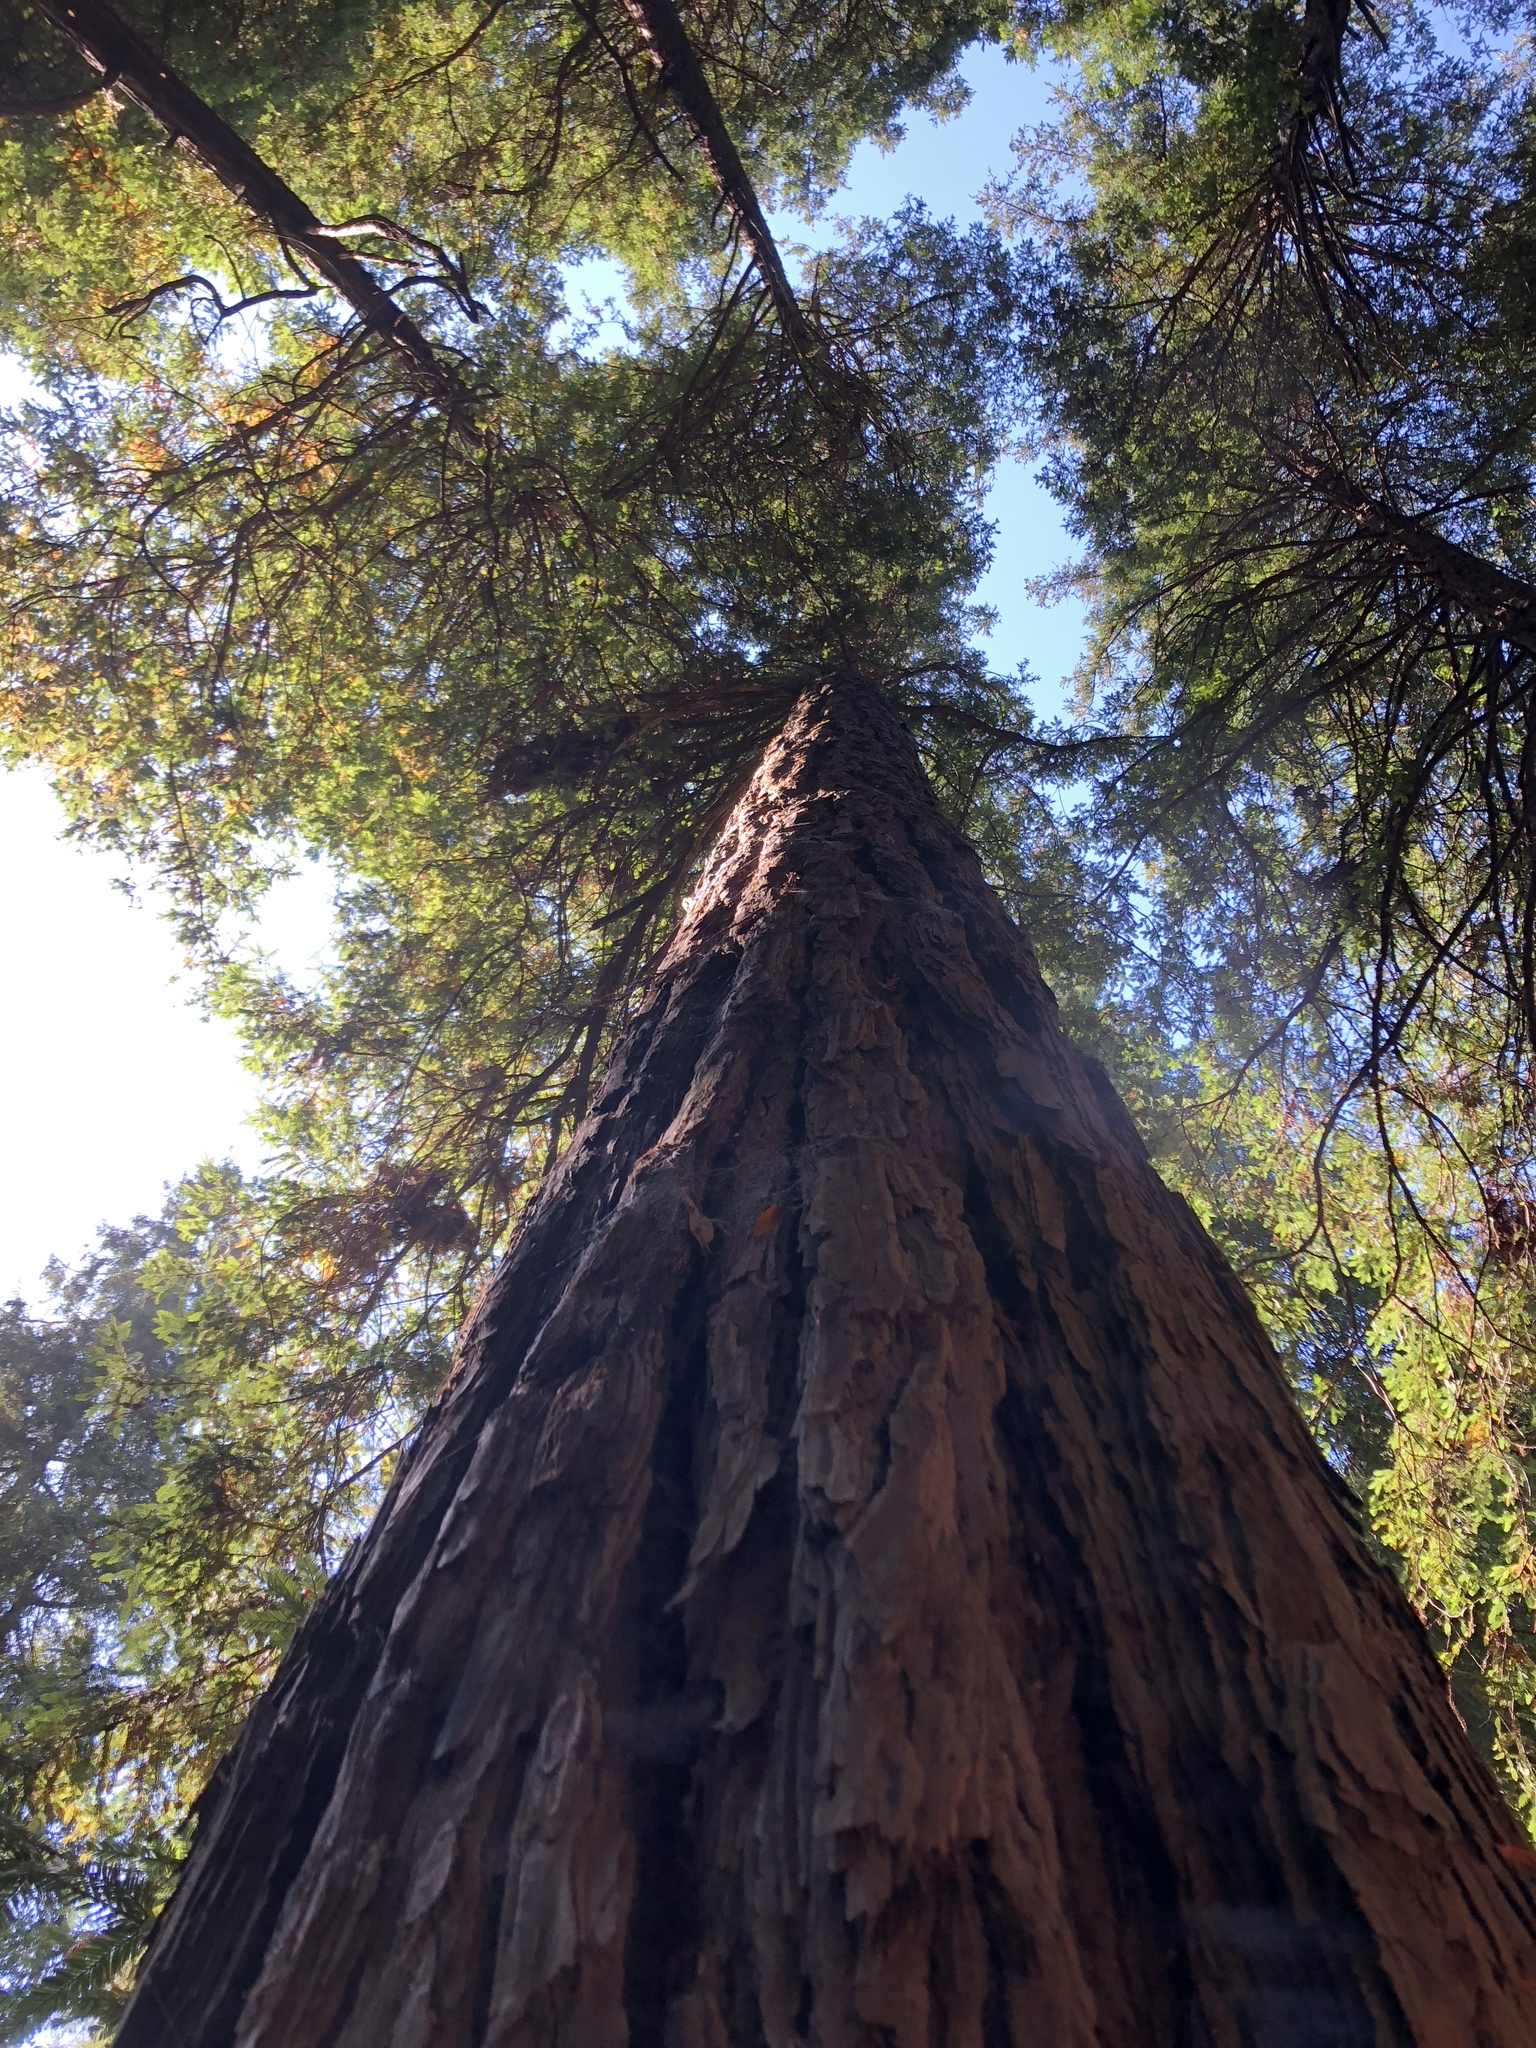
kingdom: Plantae
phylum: Tracheophyta
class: Pinopsida
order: Pinales
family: Cupressaceae
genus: Sequoia
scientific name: Sequoia sempervirens
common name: Coast redwood
